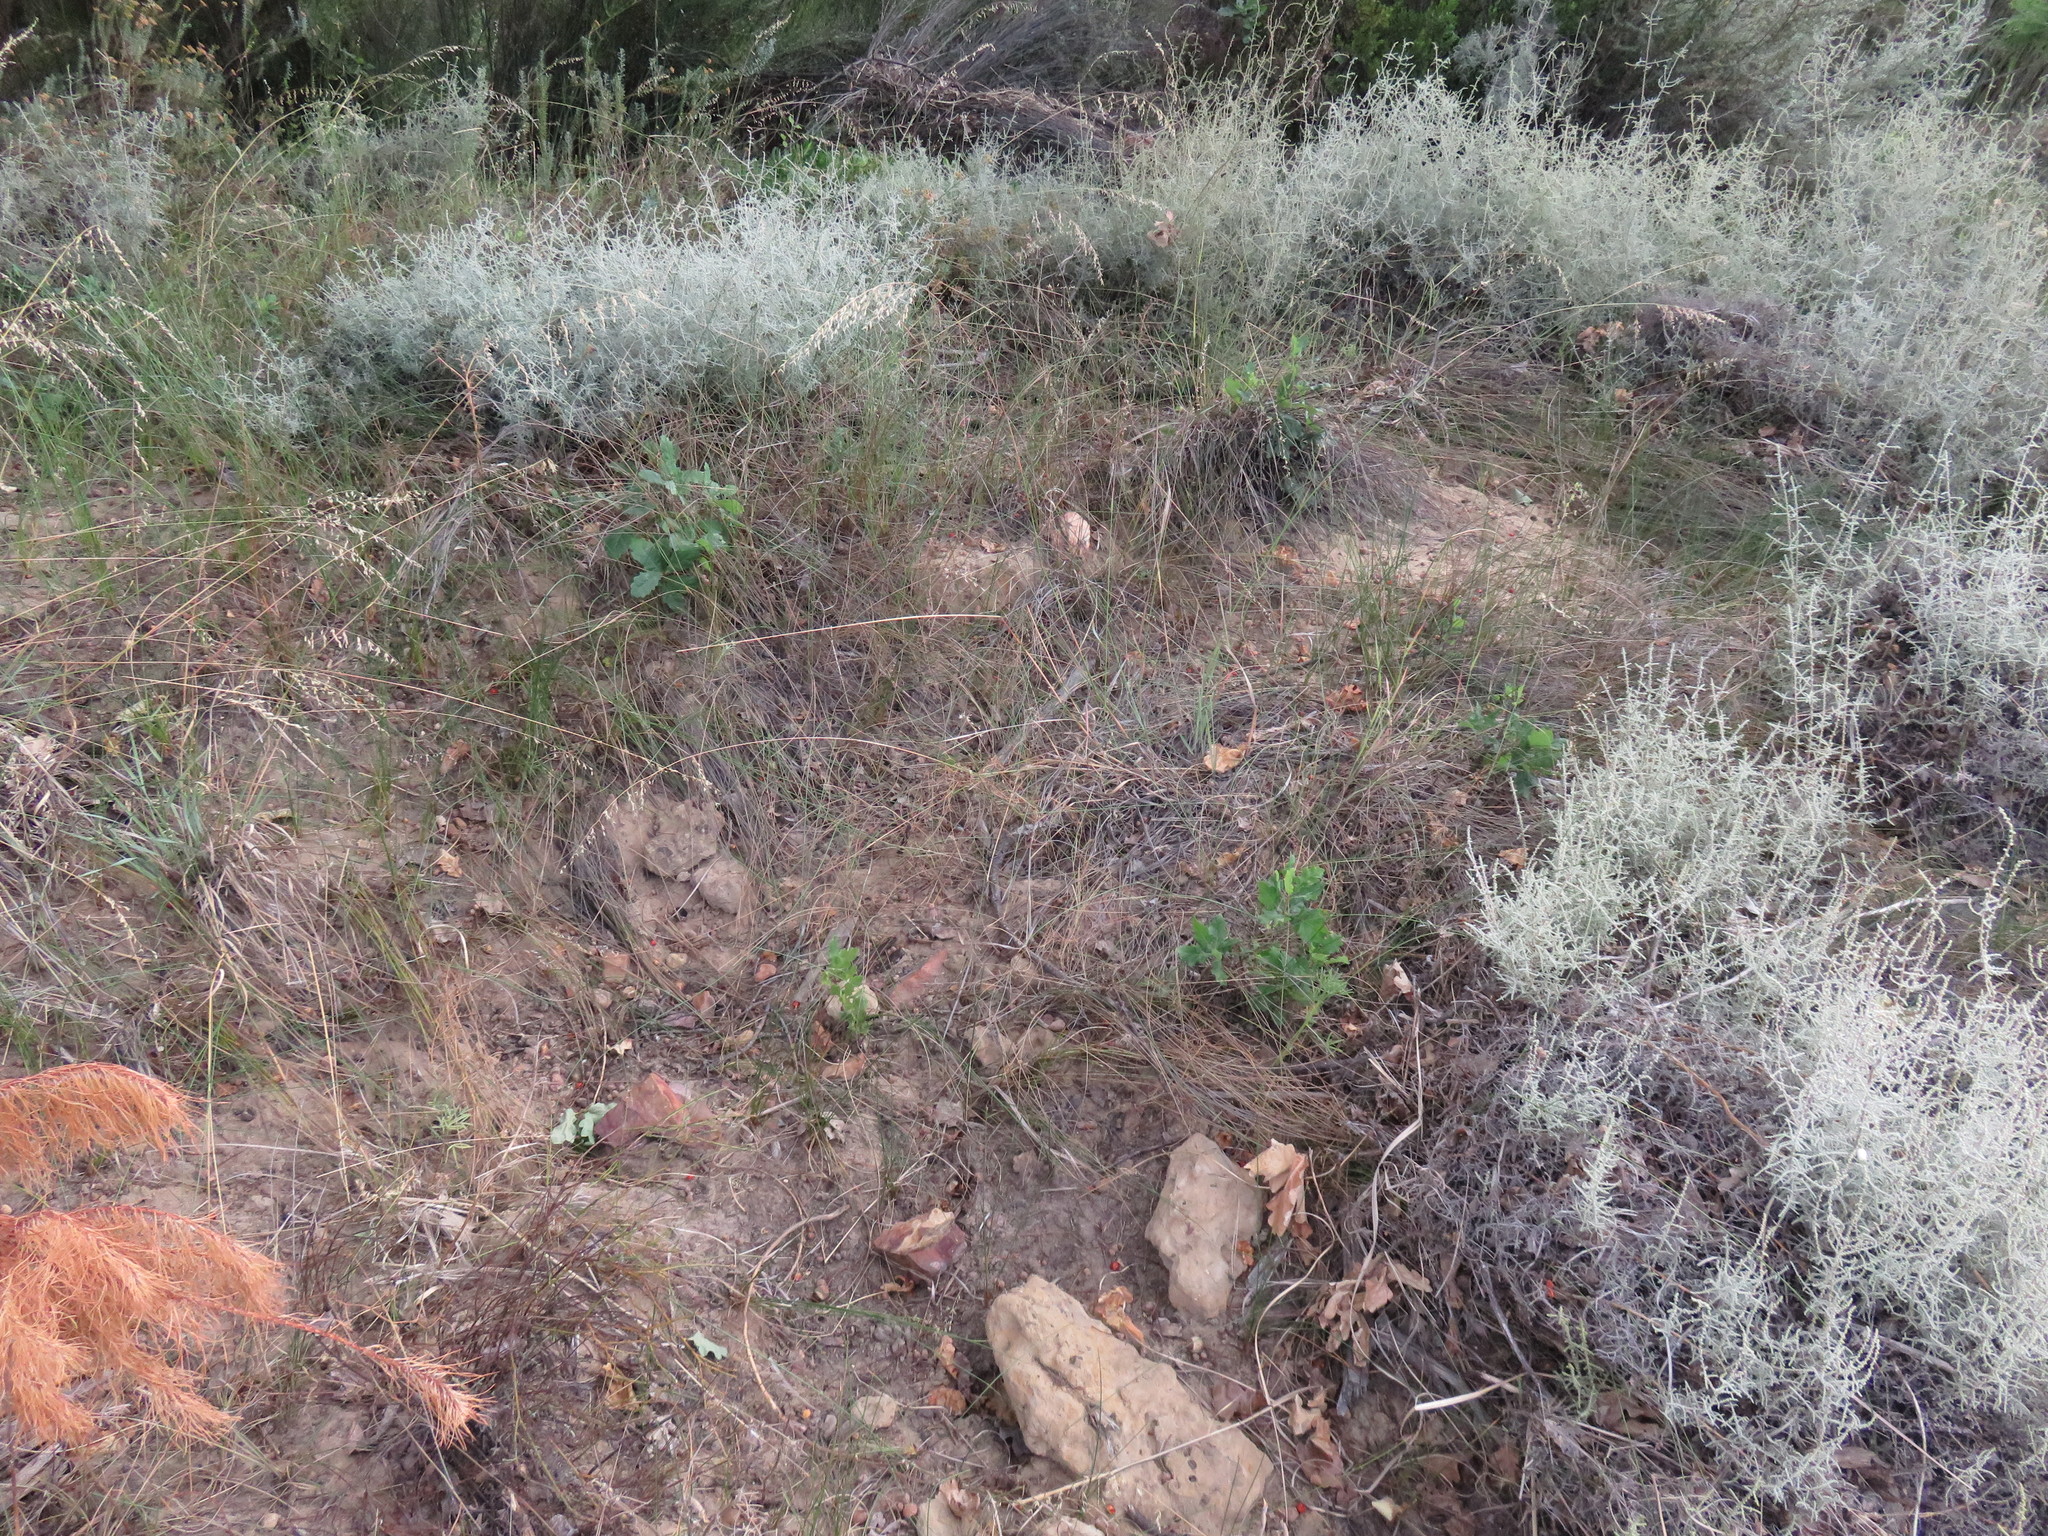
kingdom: Plantae
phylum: Tracheophyta
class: Magnoliopsida
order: Fagales
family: Fagaceae
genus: Quercus
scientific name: Quercus robur
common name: Pedunculate oak
